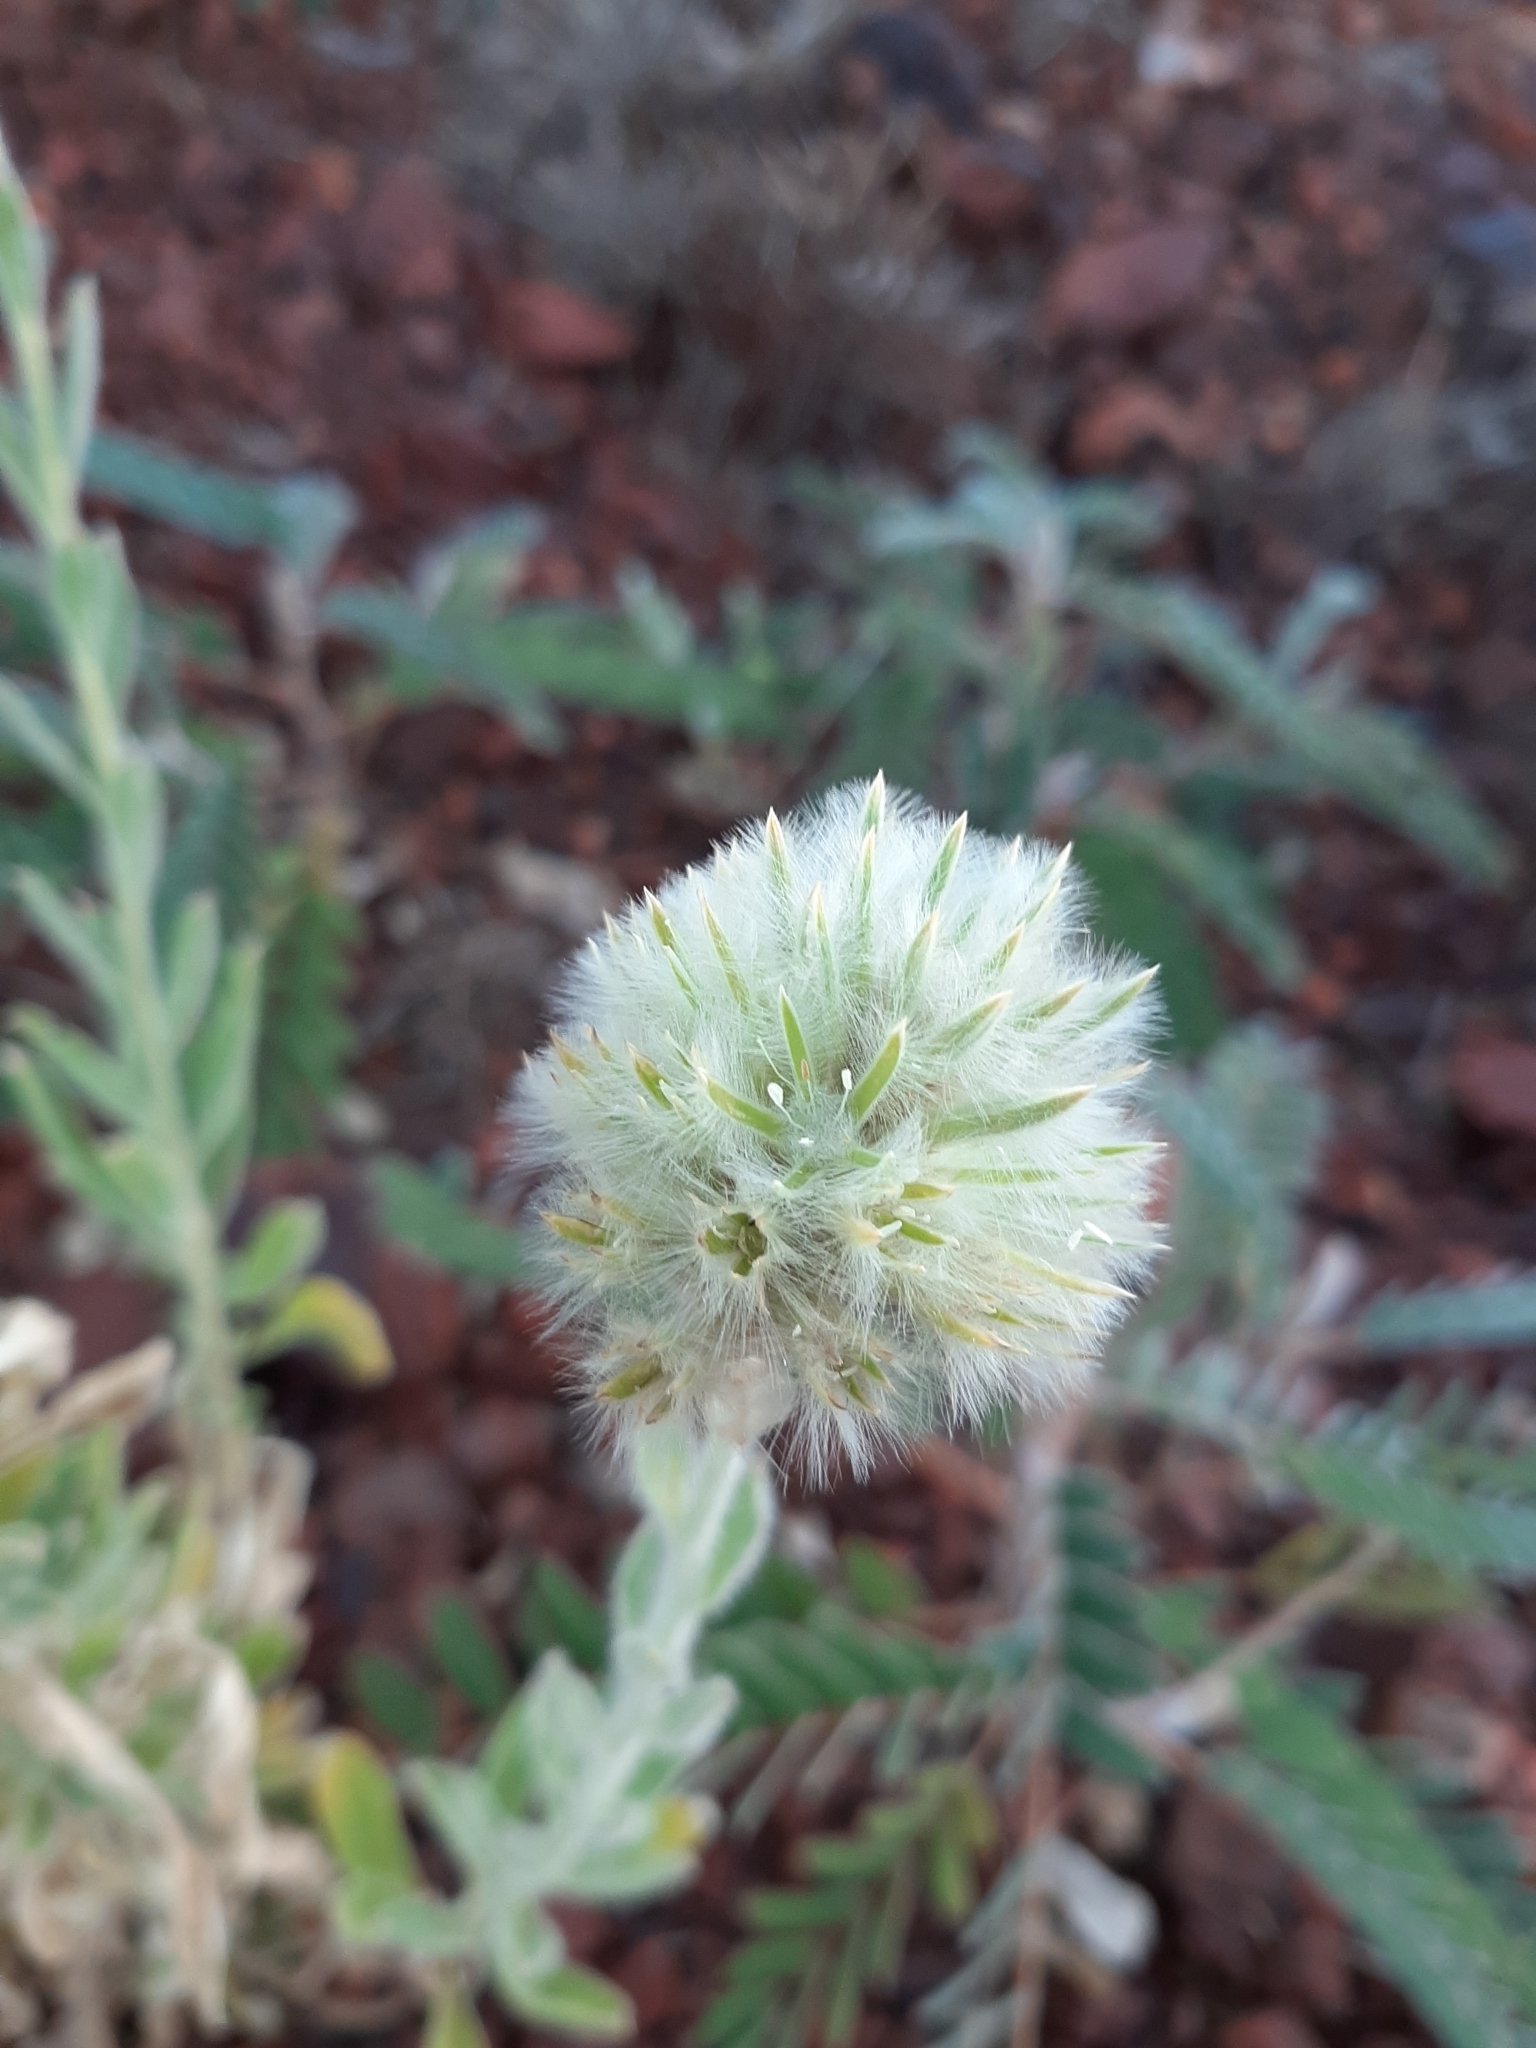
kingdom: Plantae
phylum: Tracheophyta
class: Magnoliopsida
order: Caryophyllales
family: Amaranthaceae
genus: Ptilotus
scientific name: Ptilotus clementii
